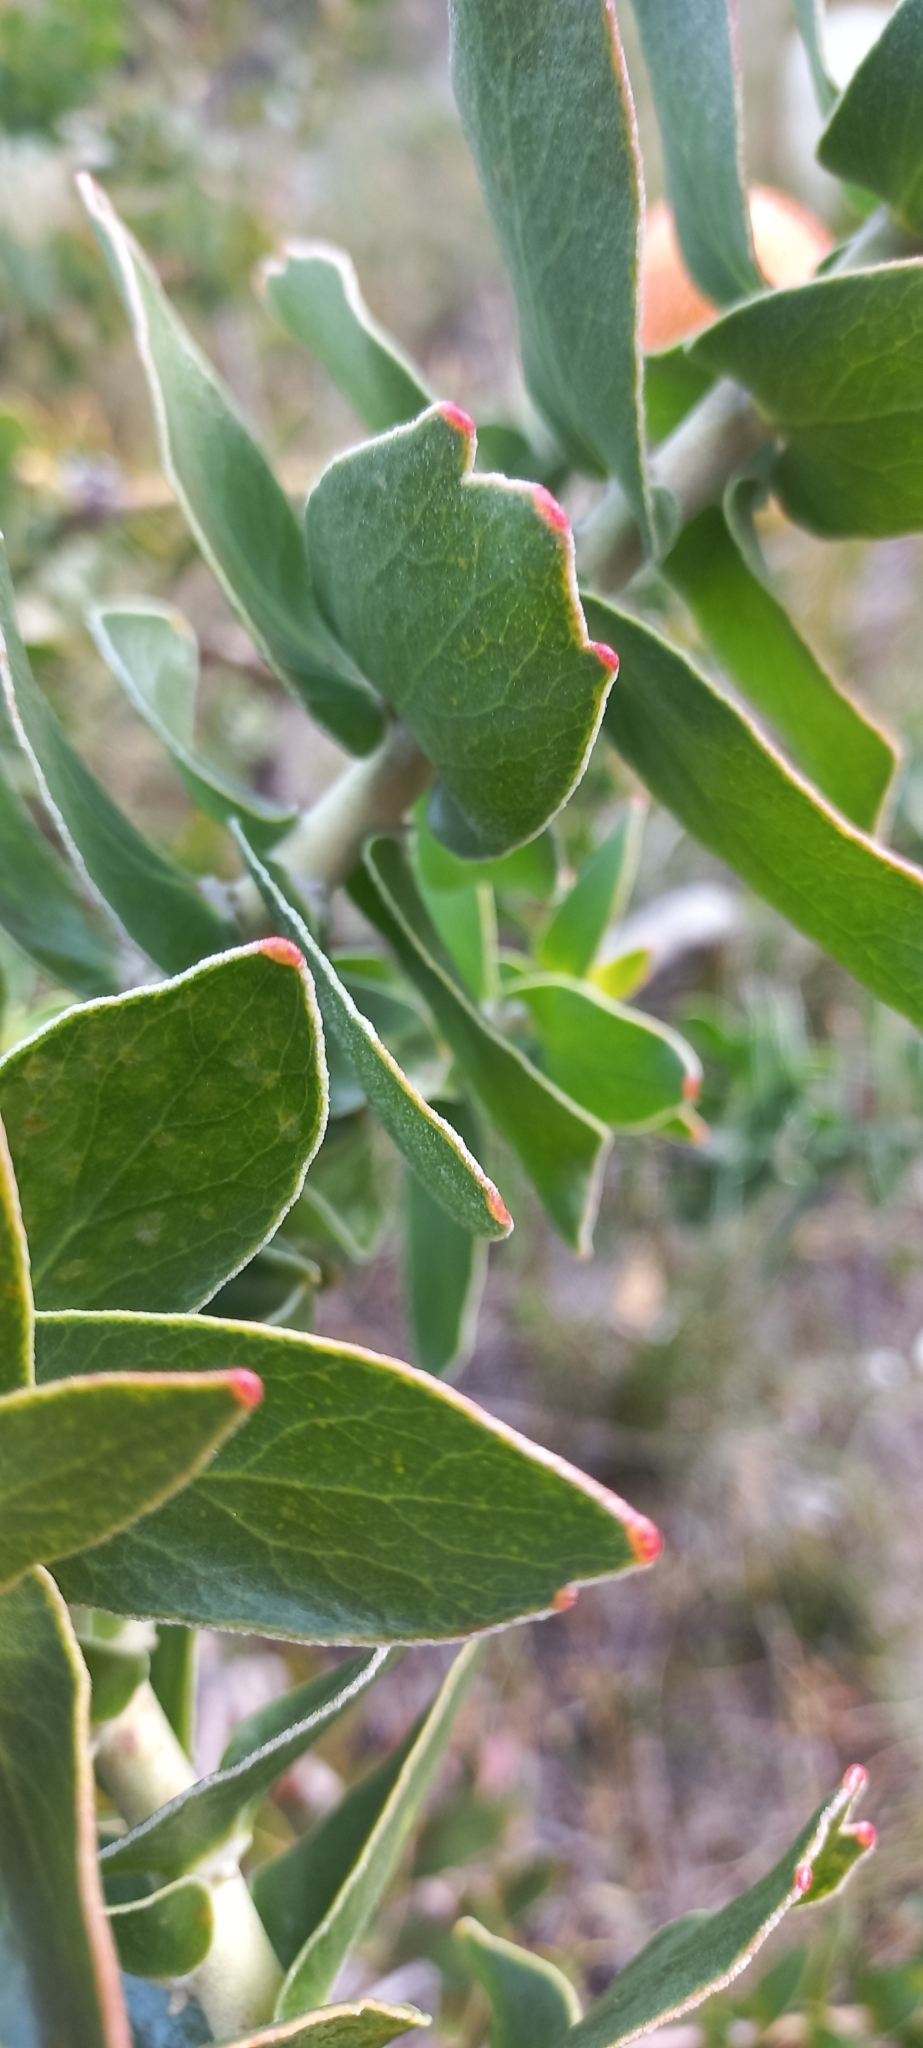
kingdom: Plantae
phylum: Tracheophyta
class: Magnoliopsida
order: Proteales
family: Proteaceae
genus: Leucospermum
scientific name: Leucospermum cordifolium
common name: Red pincushion-protea
